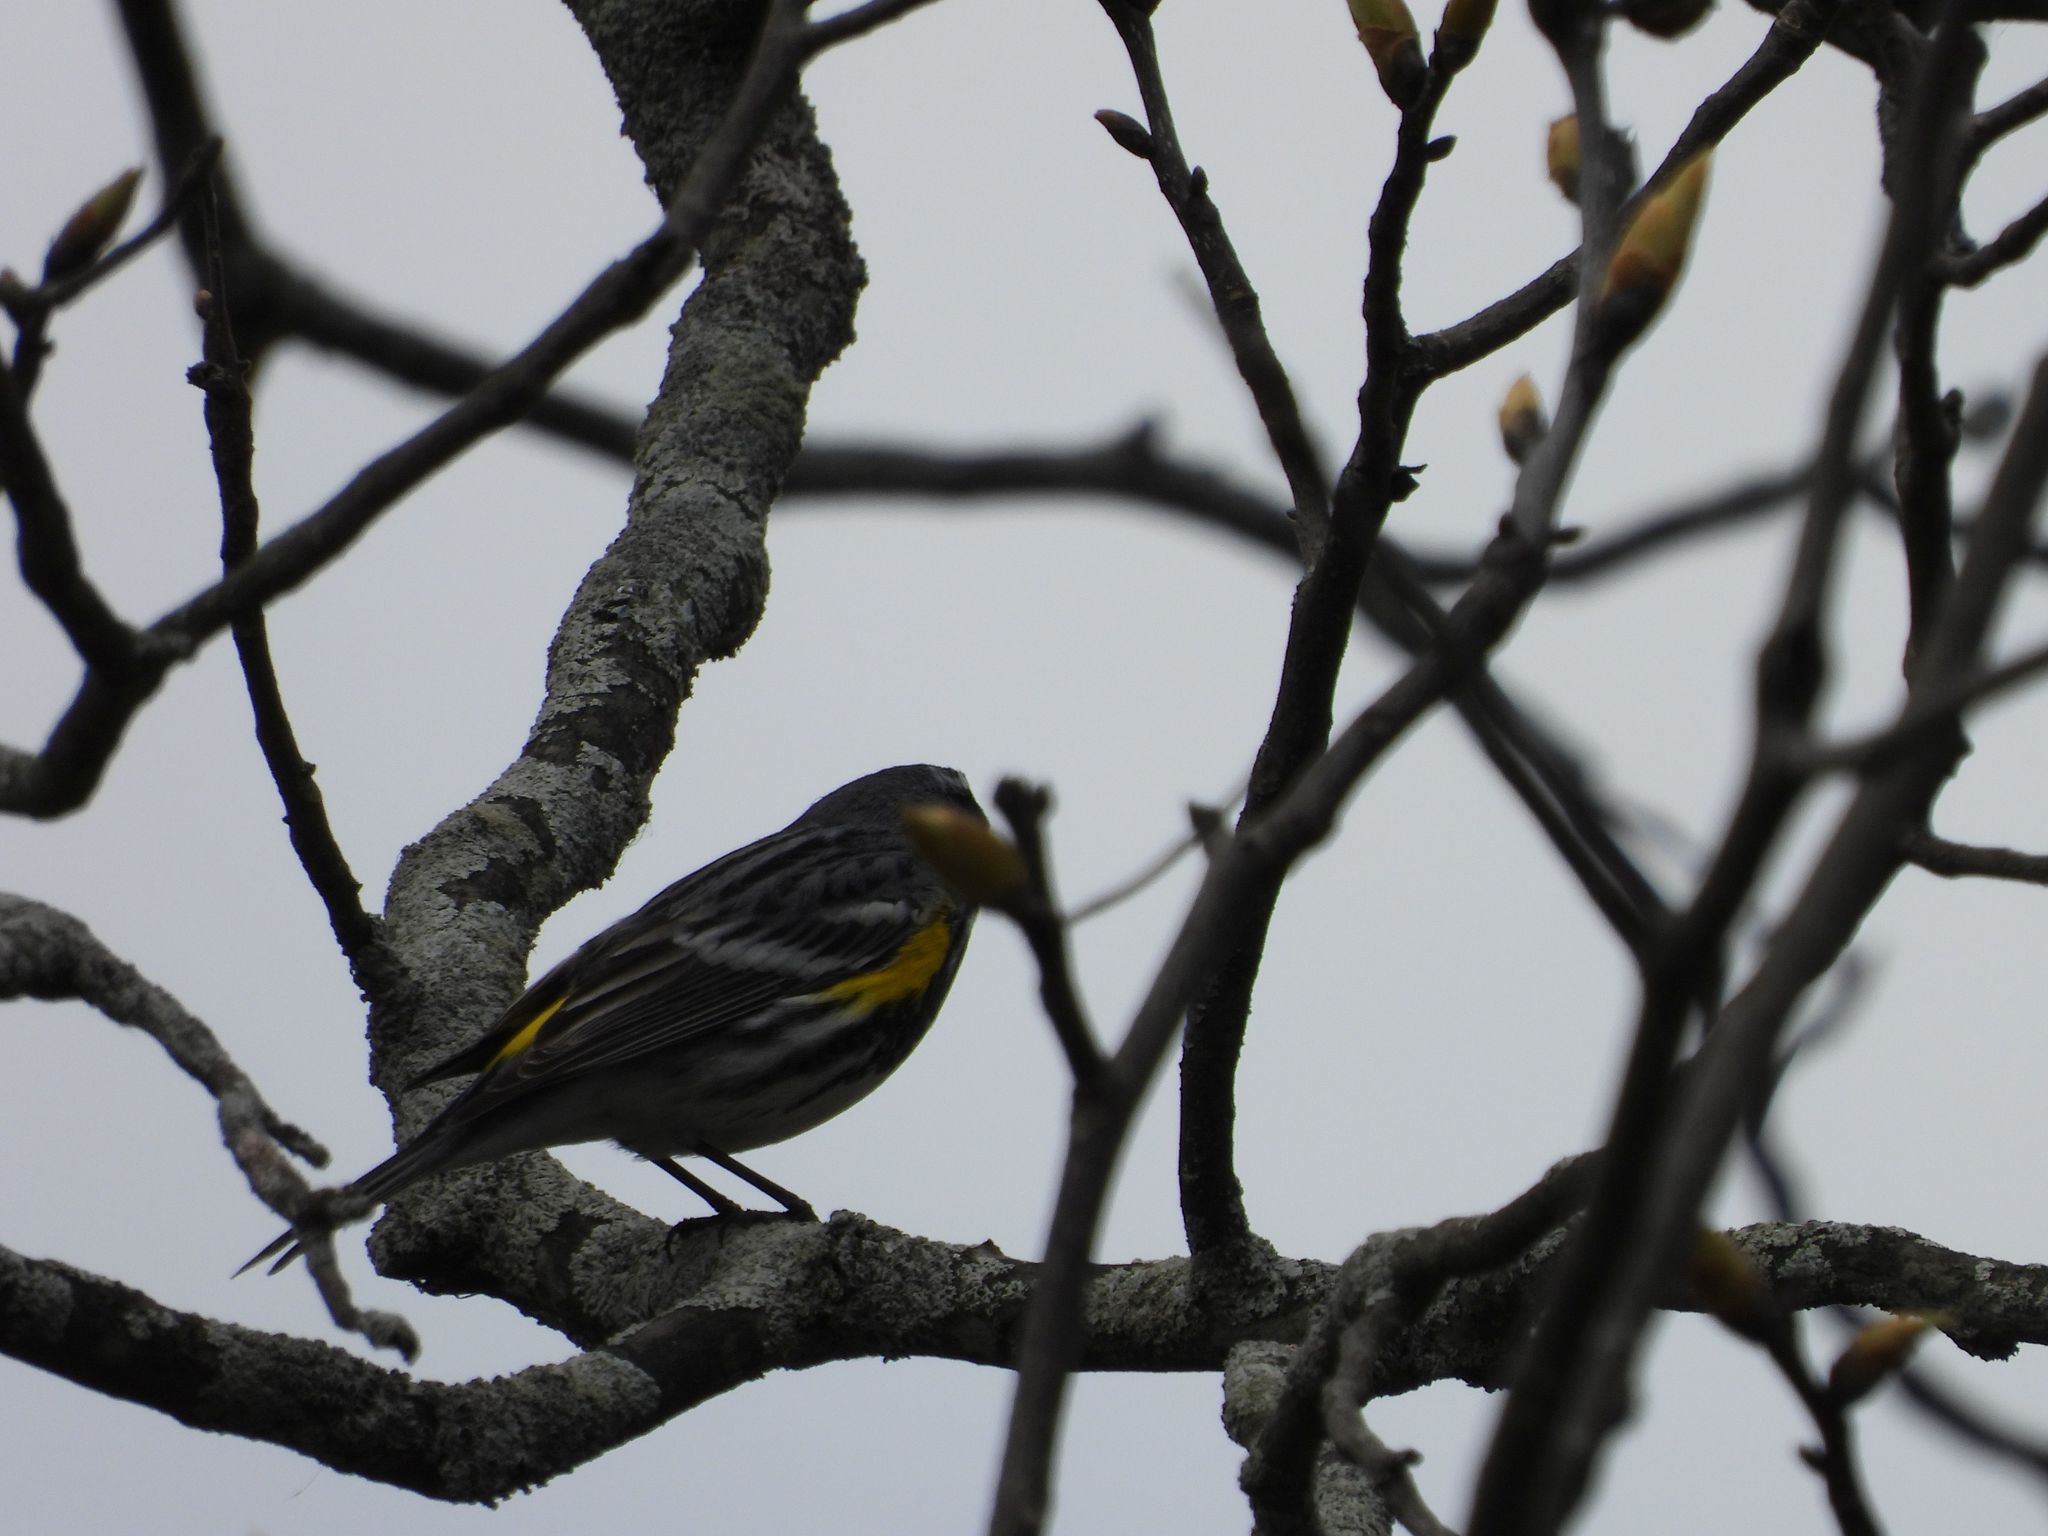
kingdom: Animalia
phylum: Chordata
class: Aves
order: Passeriformes
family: Parulidae
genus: Setophaga
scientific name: Setophaga coronata
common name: Myrtle warbler
